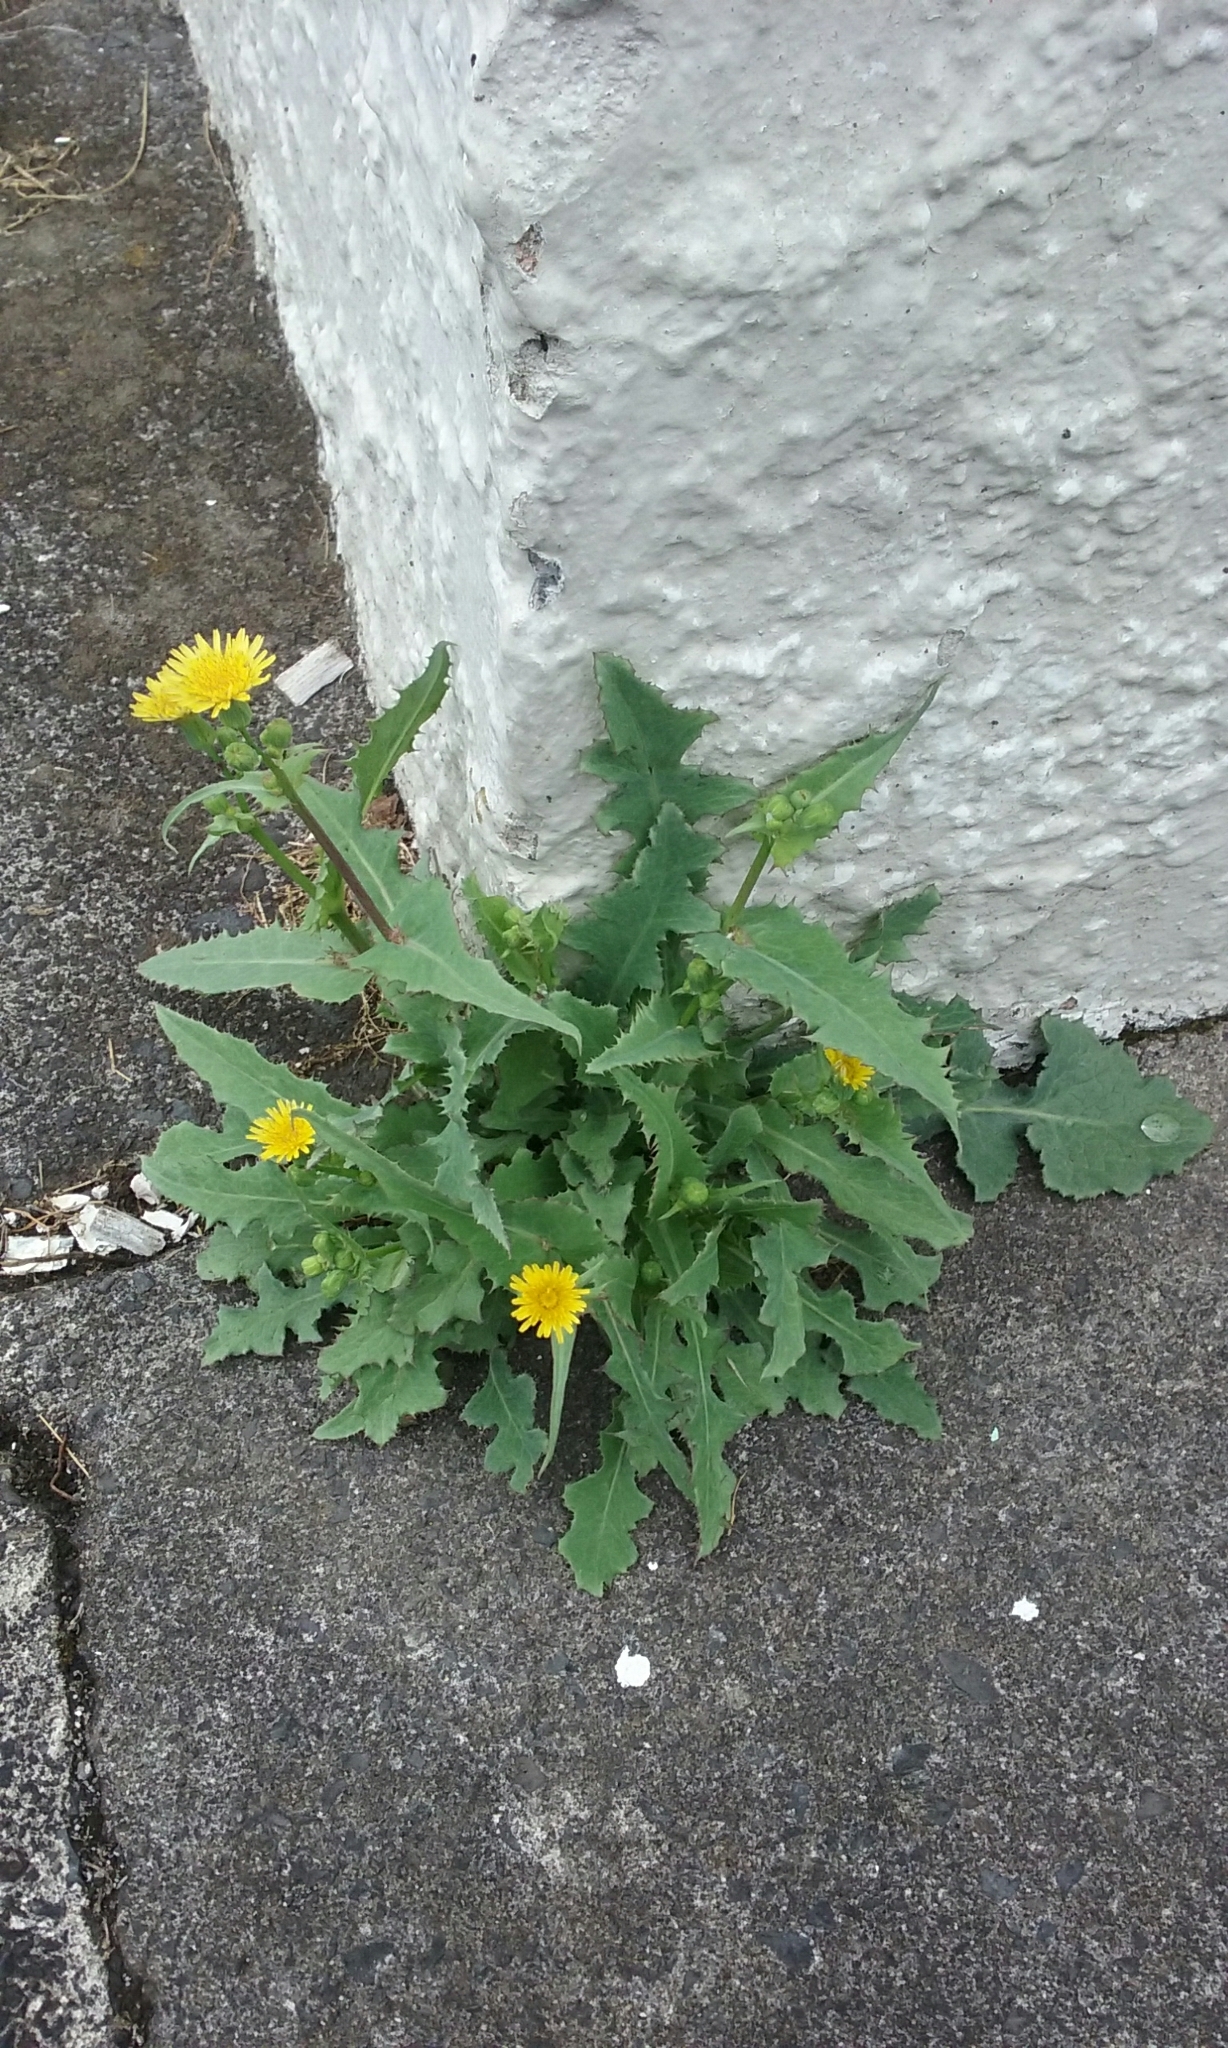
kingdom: Plantae
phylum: Tracheophyta
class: Magnoliopsida
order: Asterales
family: Asteraceae
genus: Sonchus
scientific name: Sonchus oleraceus
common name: Common sowthistle
